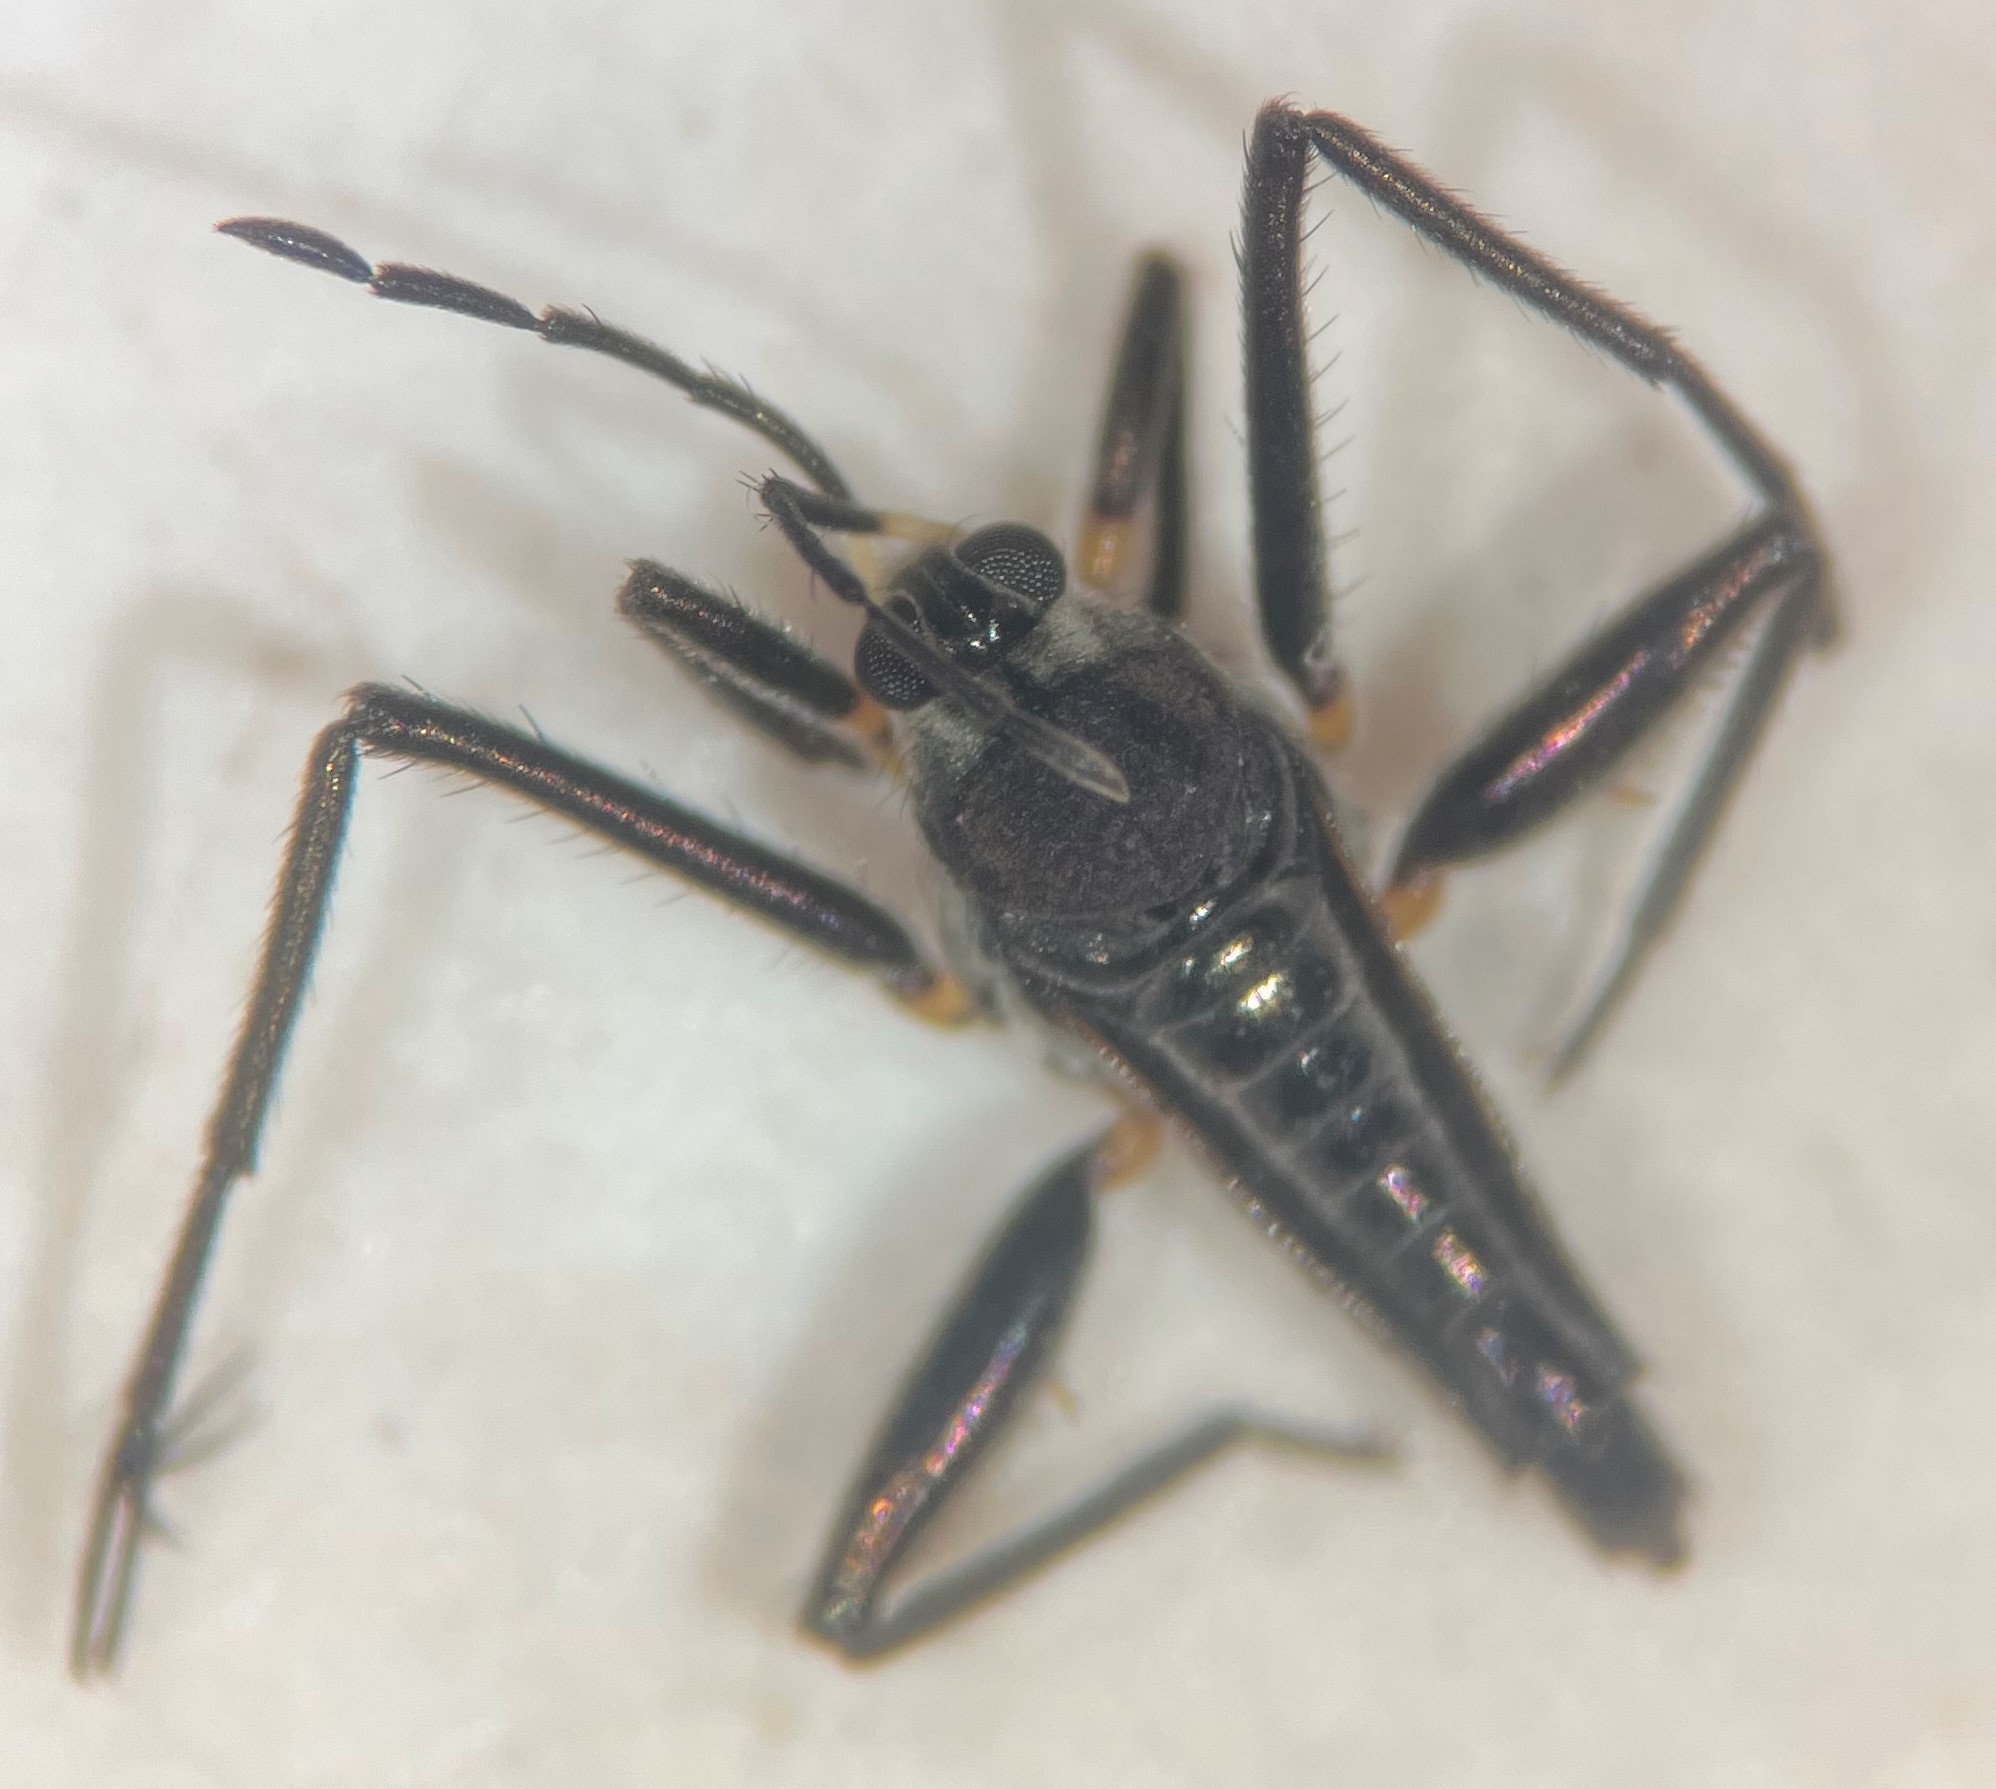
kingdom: Animalia
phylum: Arthropoda
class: Insecta
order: Hemiptera
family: Veliidae
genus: Rhagovelia
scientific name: Rhagovelia distincta
